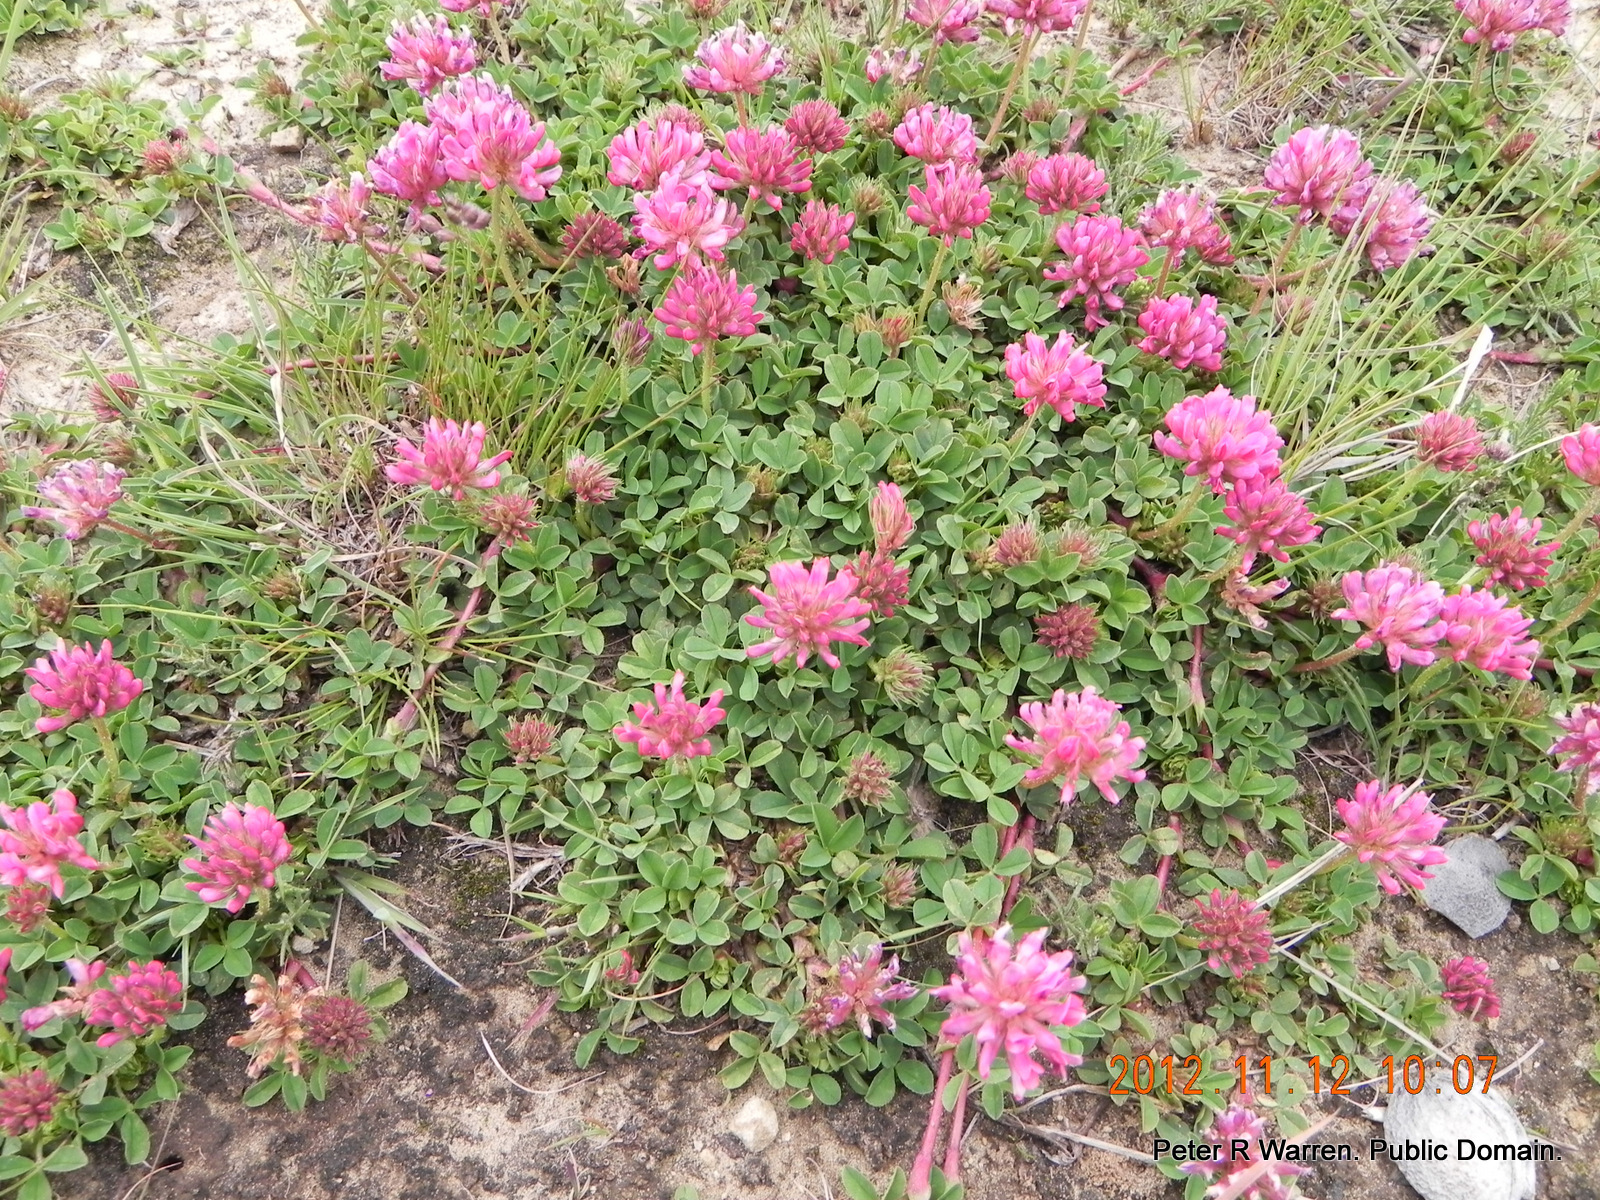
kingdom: Plantae
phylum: Tracheophyta
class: Magnoliopsida
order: Fabales
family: Fabaceae
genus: Trifolium
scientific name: Trifolium burchellianum
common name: Burchell's clover
